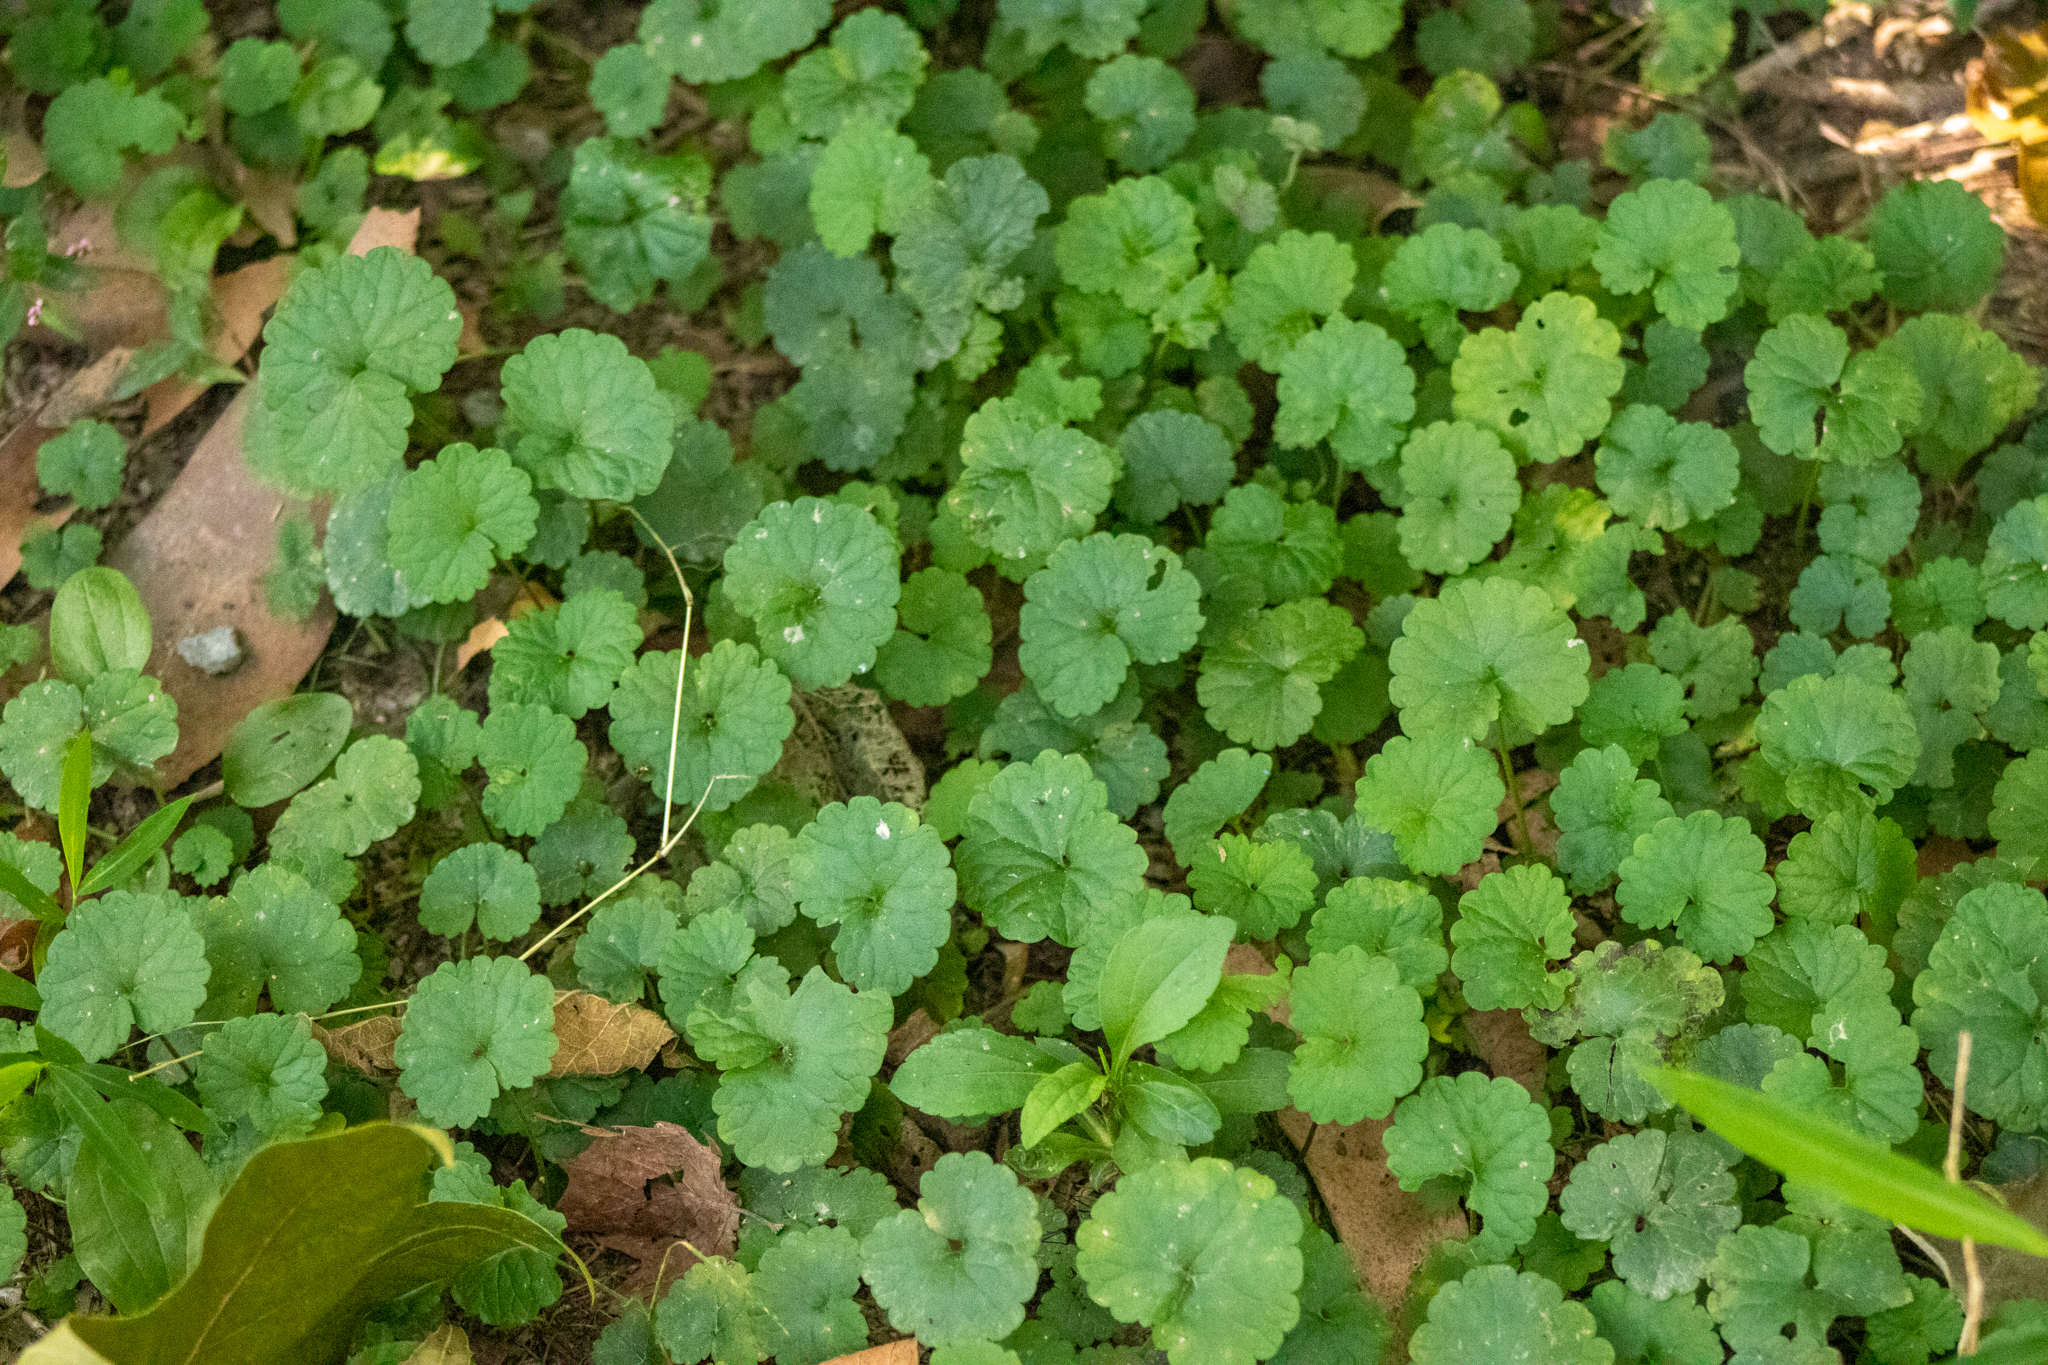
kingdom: Plantae
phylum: Tracheophyta
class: Magnoliopsida
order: Lamiales
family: Lamiaceae
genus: Glechoma
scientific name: Glechoma hederacea
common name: Ground ivy
